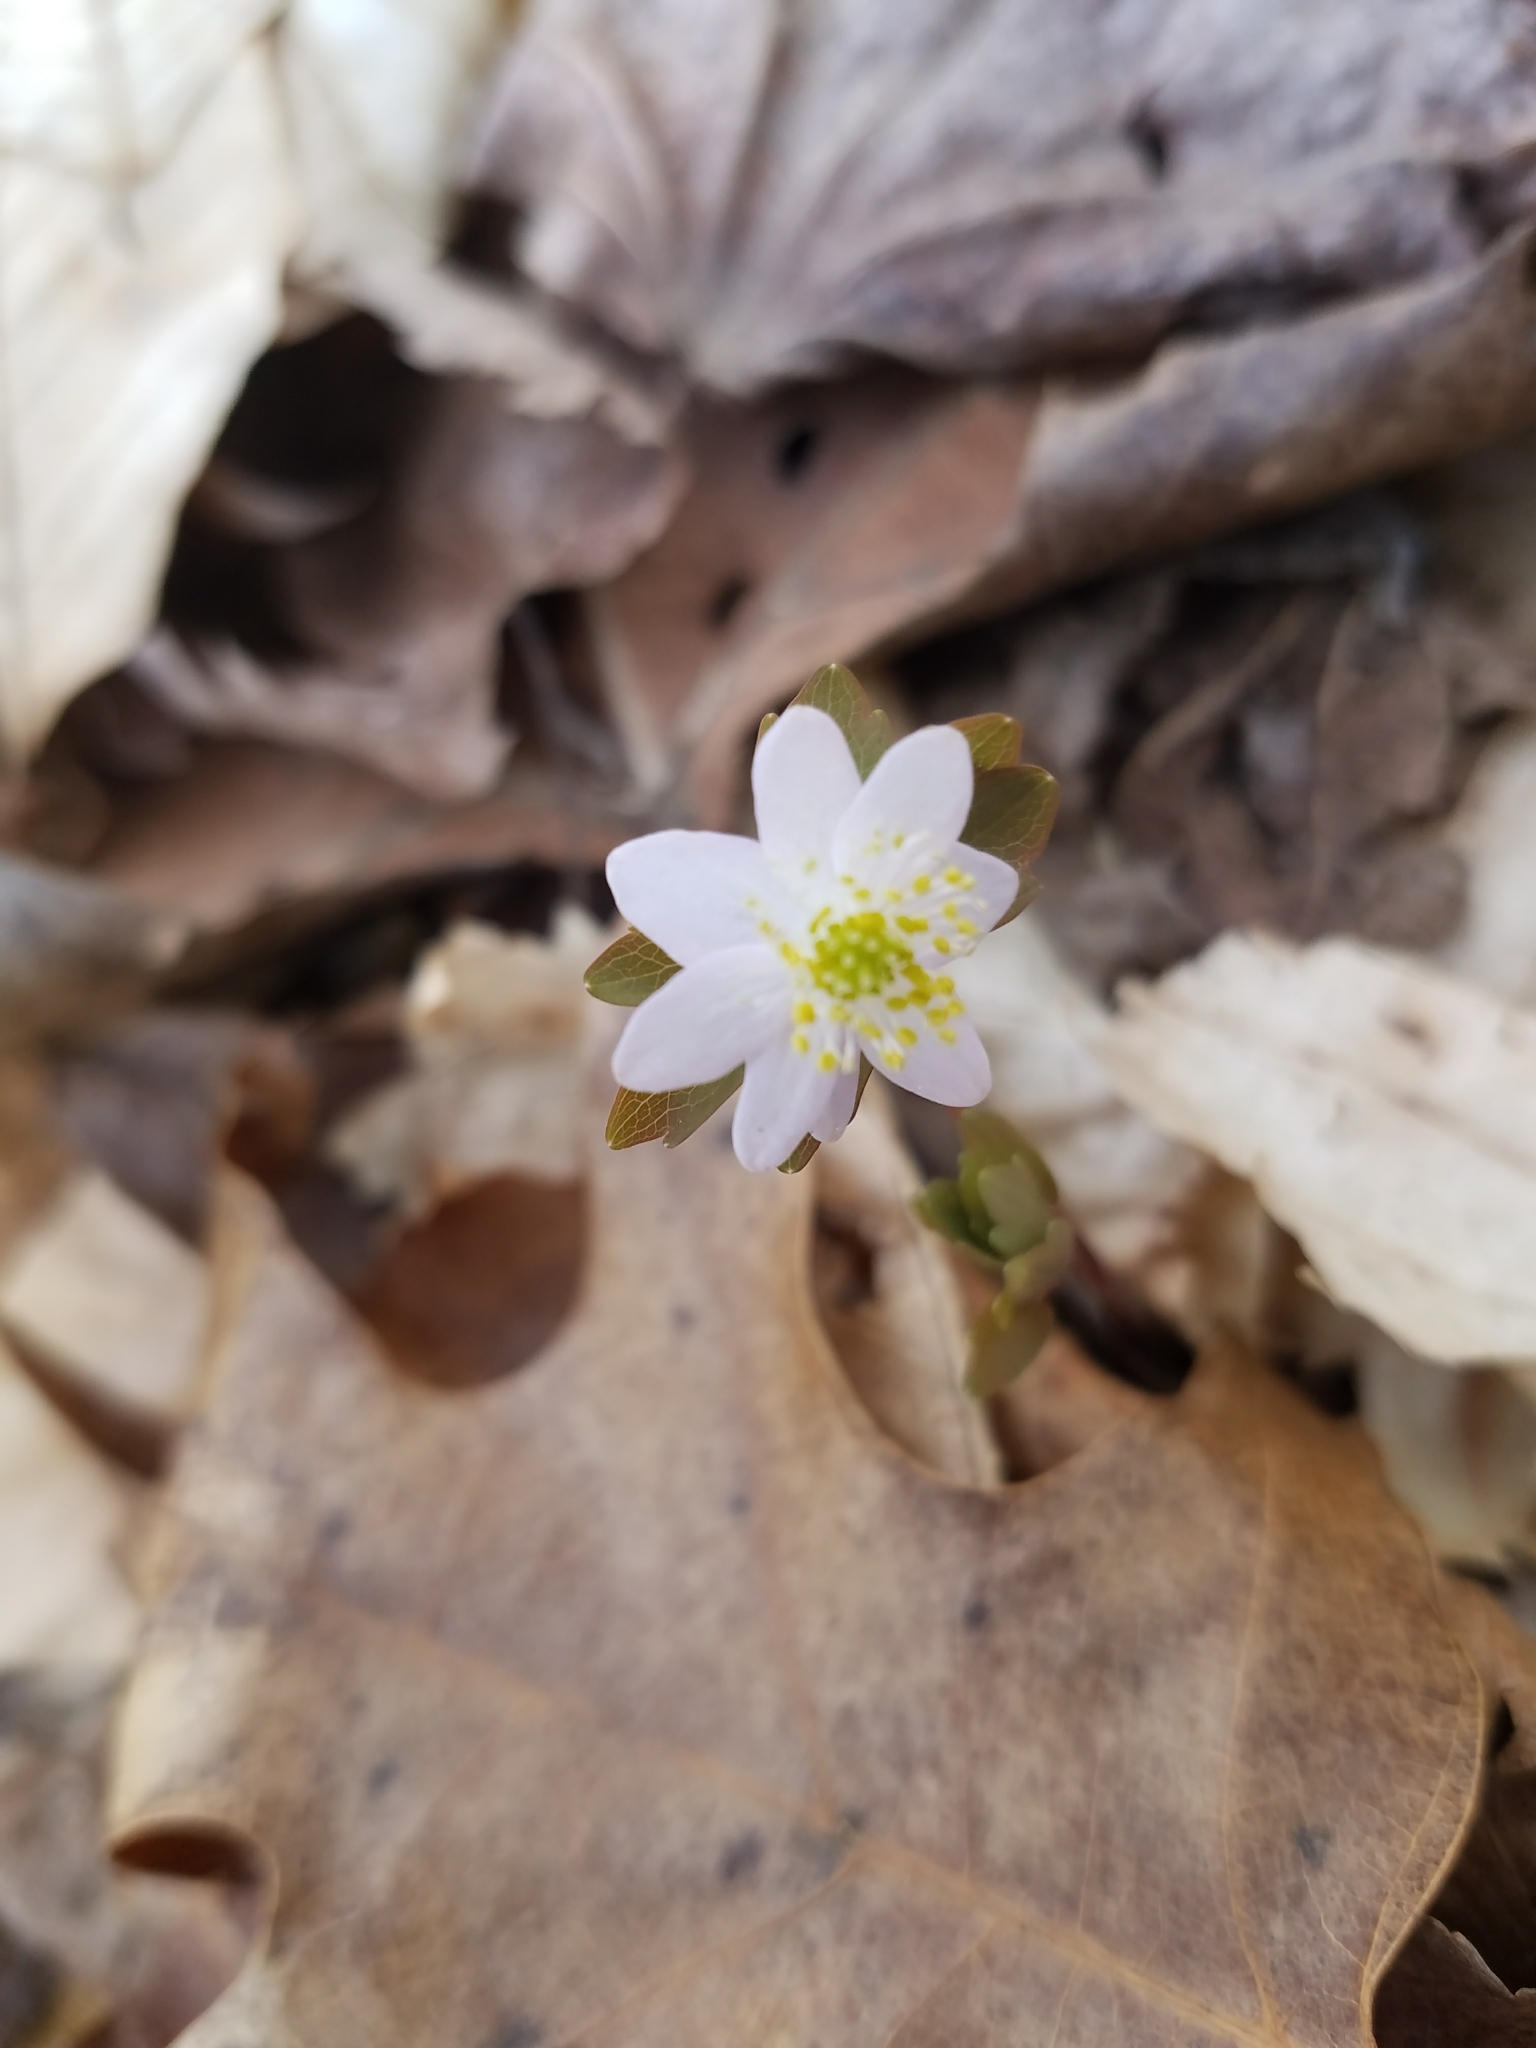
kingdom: Plantae
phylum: Tracheophyta
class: Magnoliopsida
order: Ranunculales
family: Ranunculaceae
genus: Thalictrum
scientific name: Thalictrum thalictroides
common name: Rue-anemone
